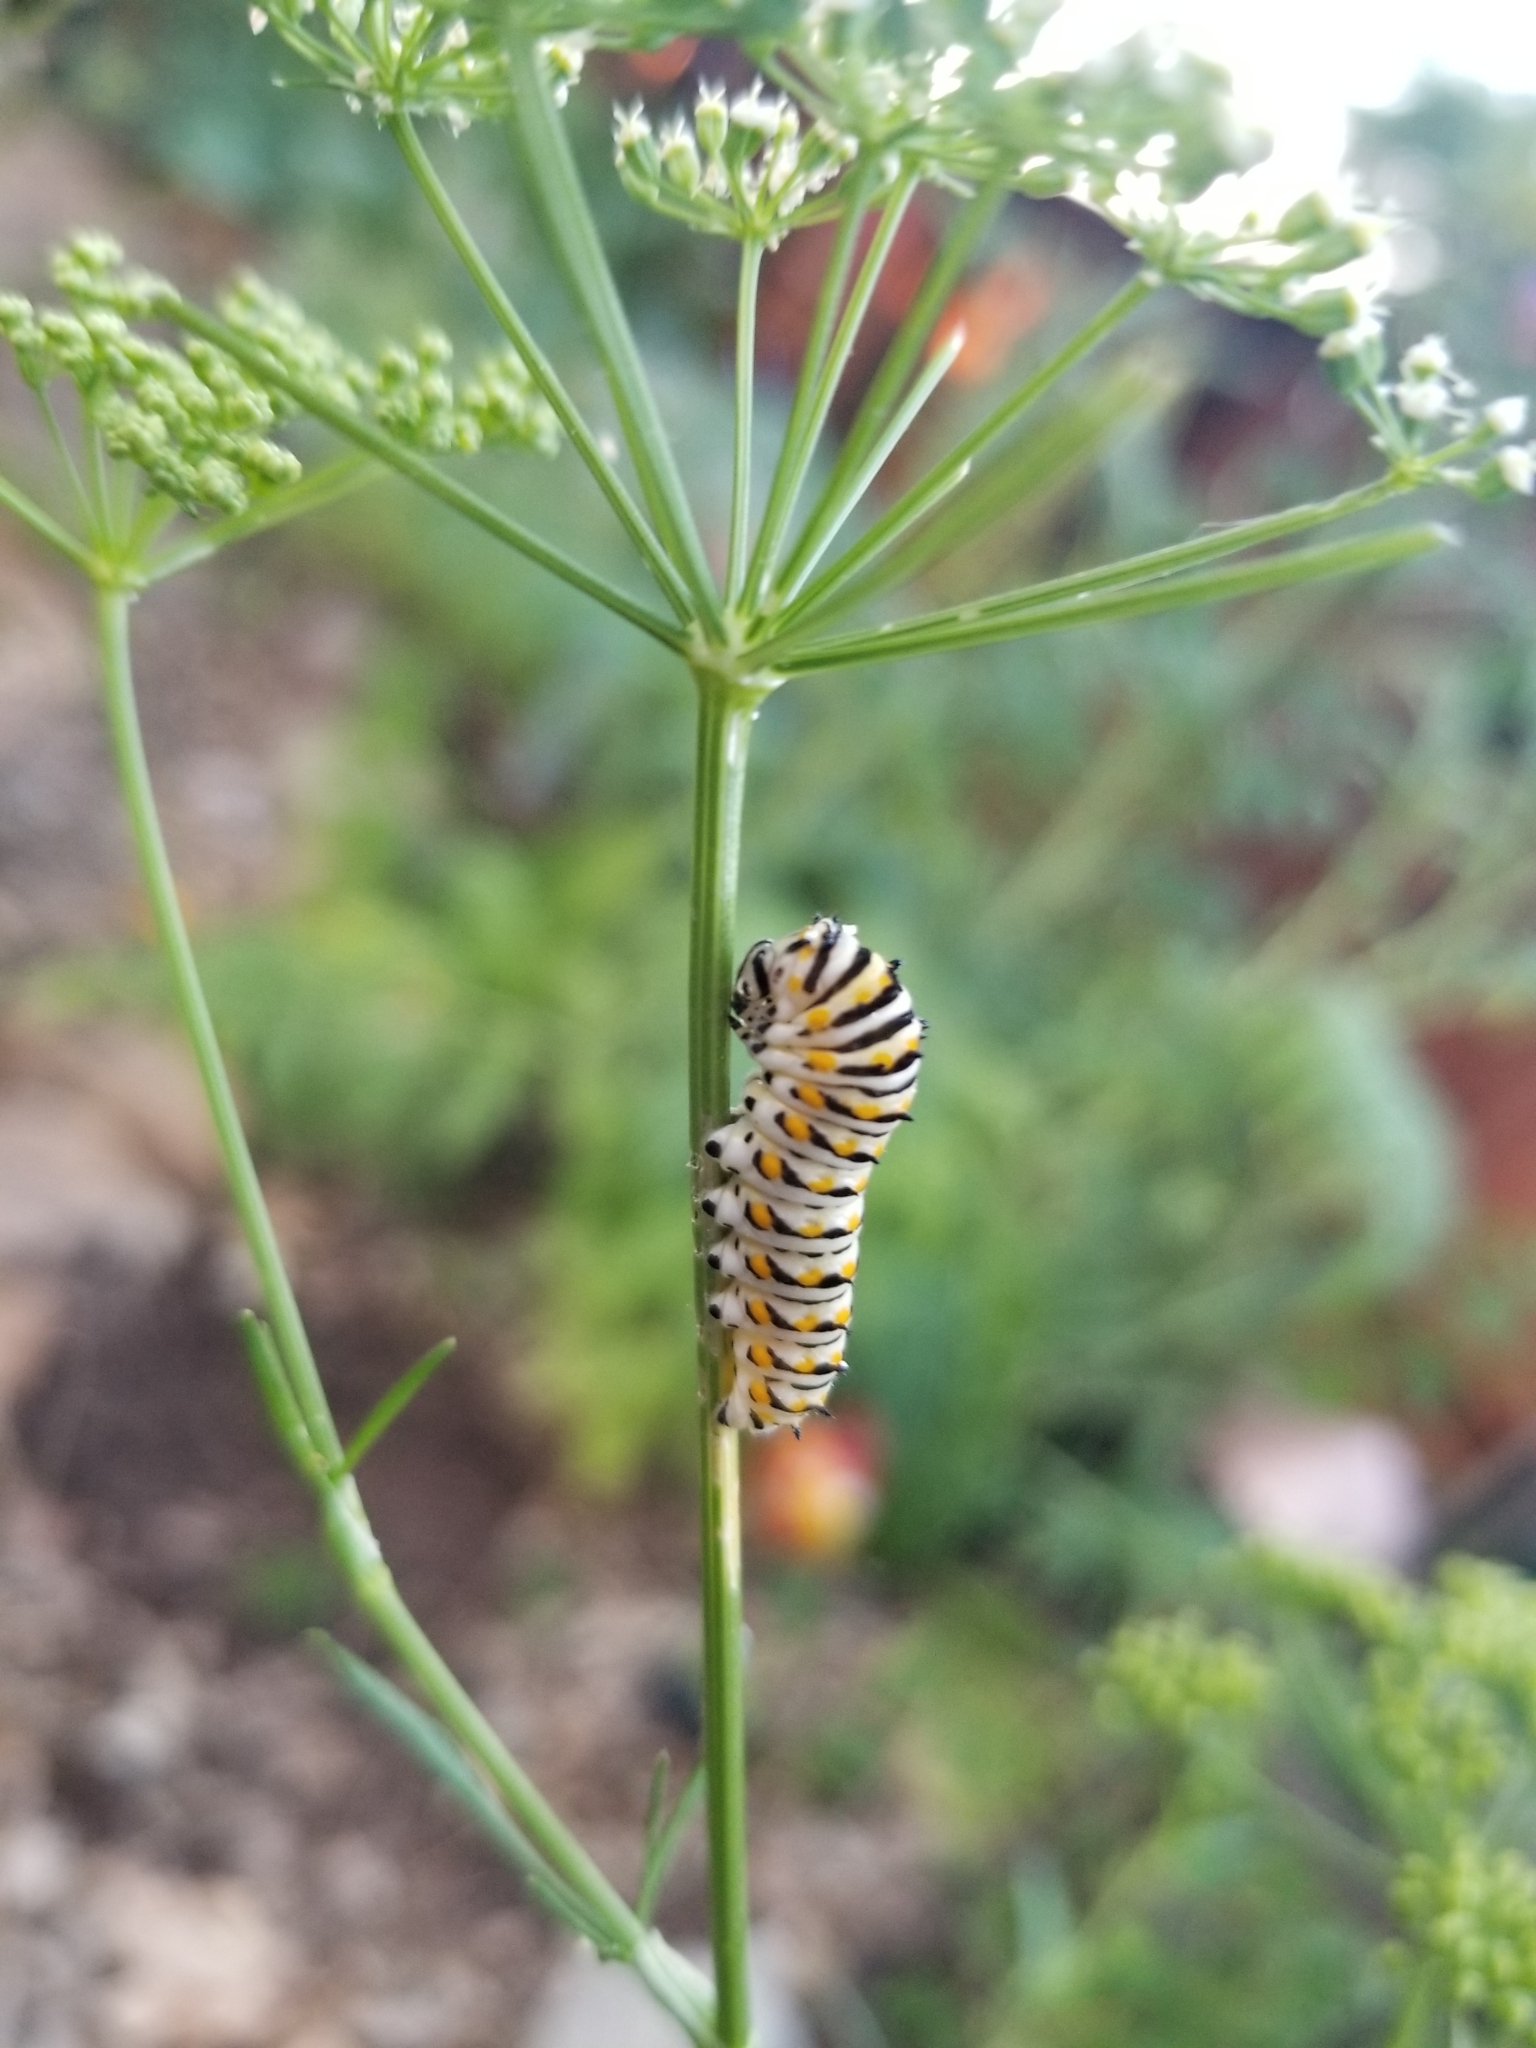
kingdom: Animalia
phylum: Arthropoda
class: Insecta
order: Lepidoptera
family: Papilionidae
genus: Papilio
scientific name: Papilio polyxenes
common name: Black swallowtail
